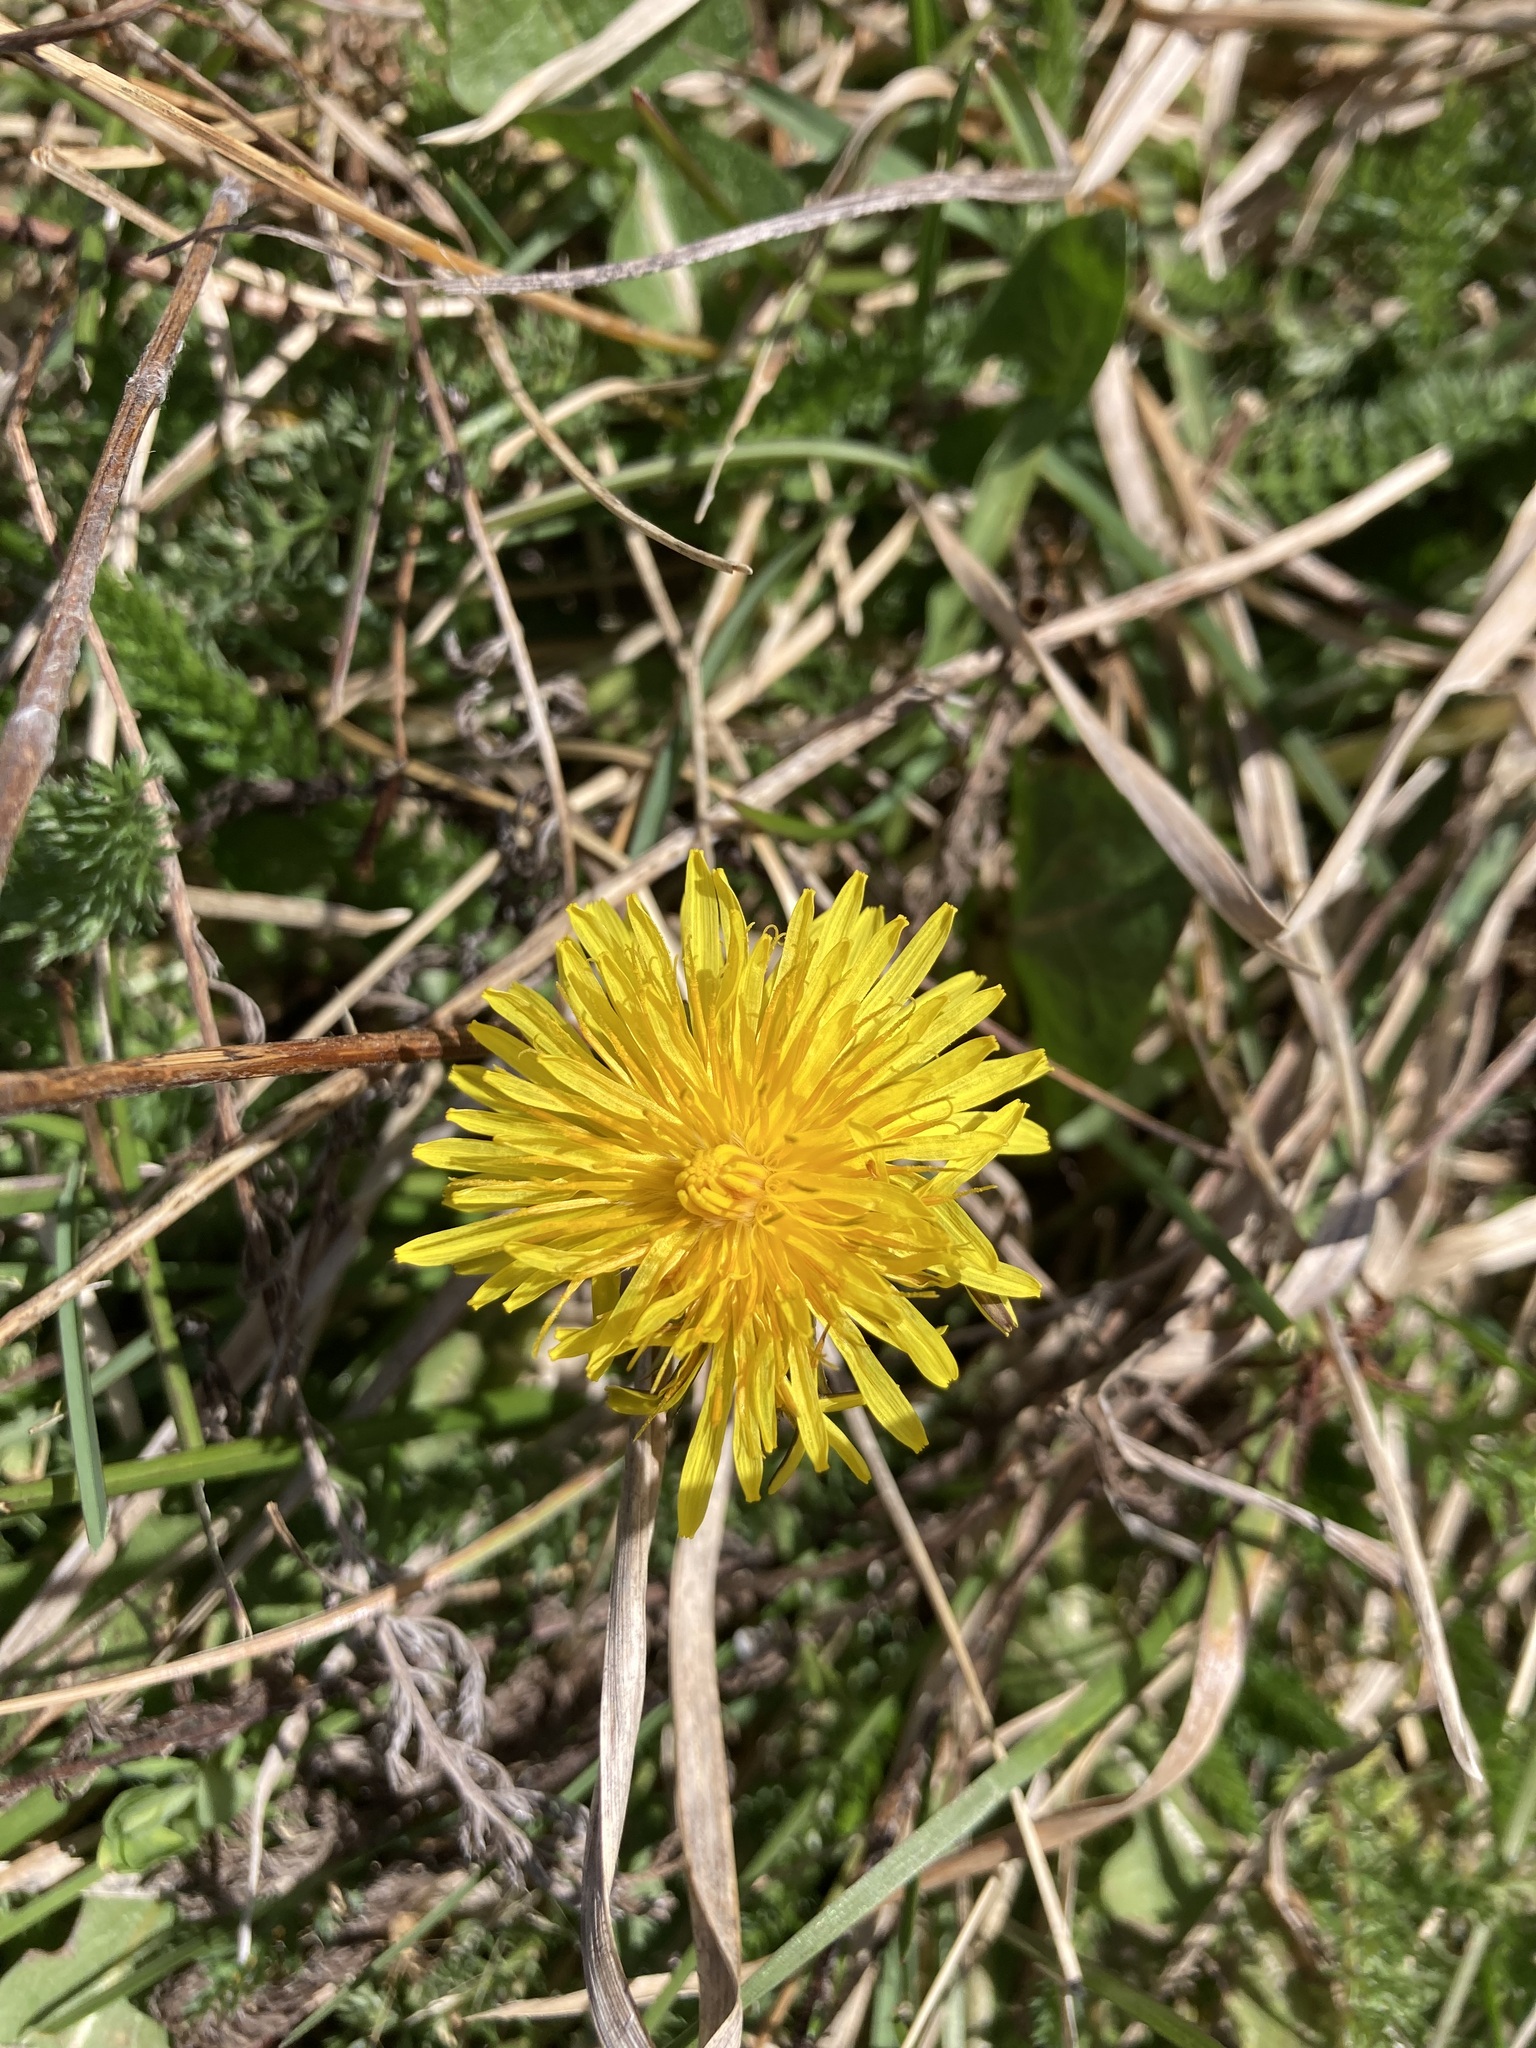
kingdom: Plantae
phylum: Tracheophyta
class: Magnoliopsida
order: Asterales
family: Asteraceae
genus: Taraxacum
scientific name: Taraxacum officinale
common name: Common dandelion
